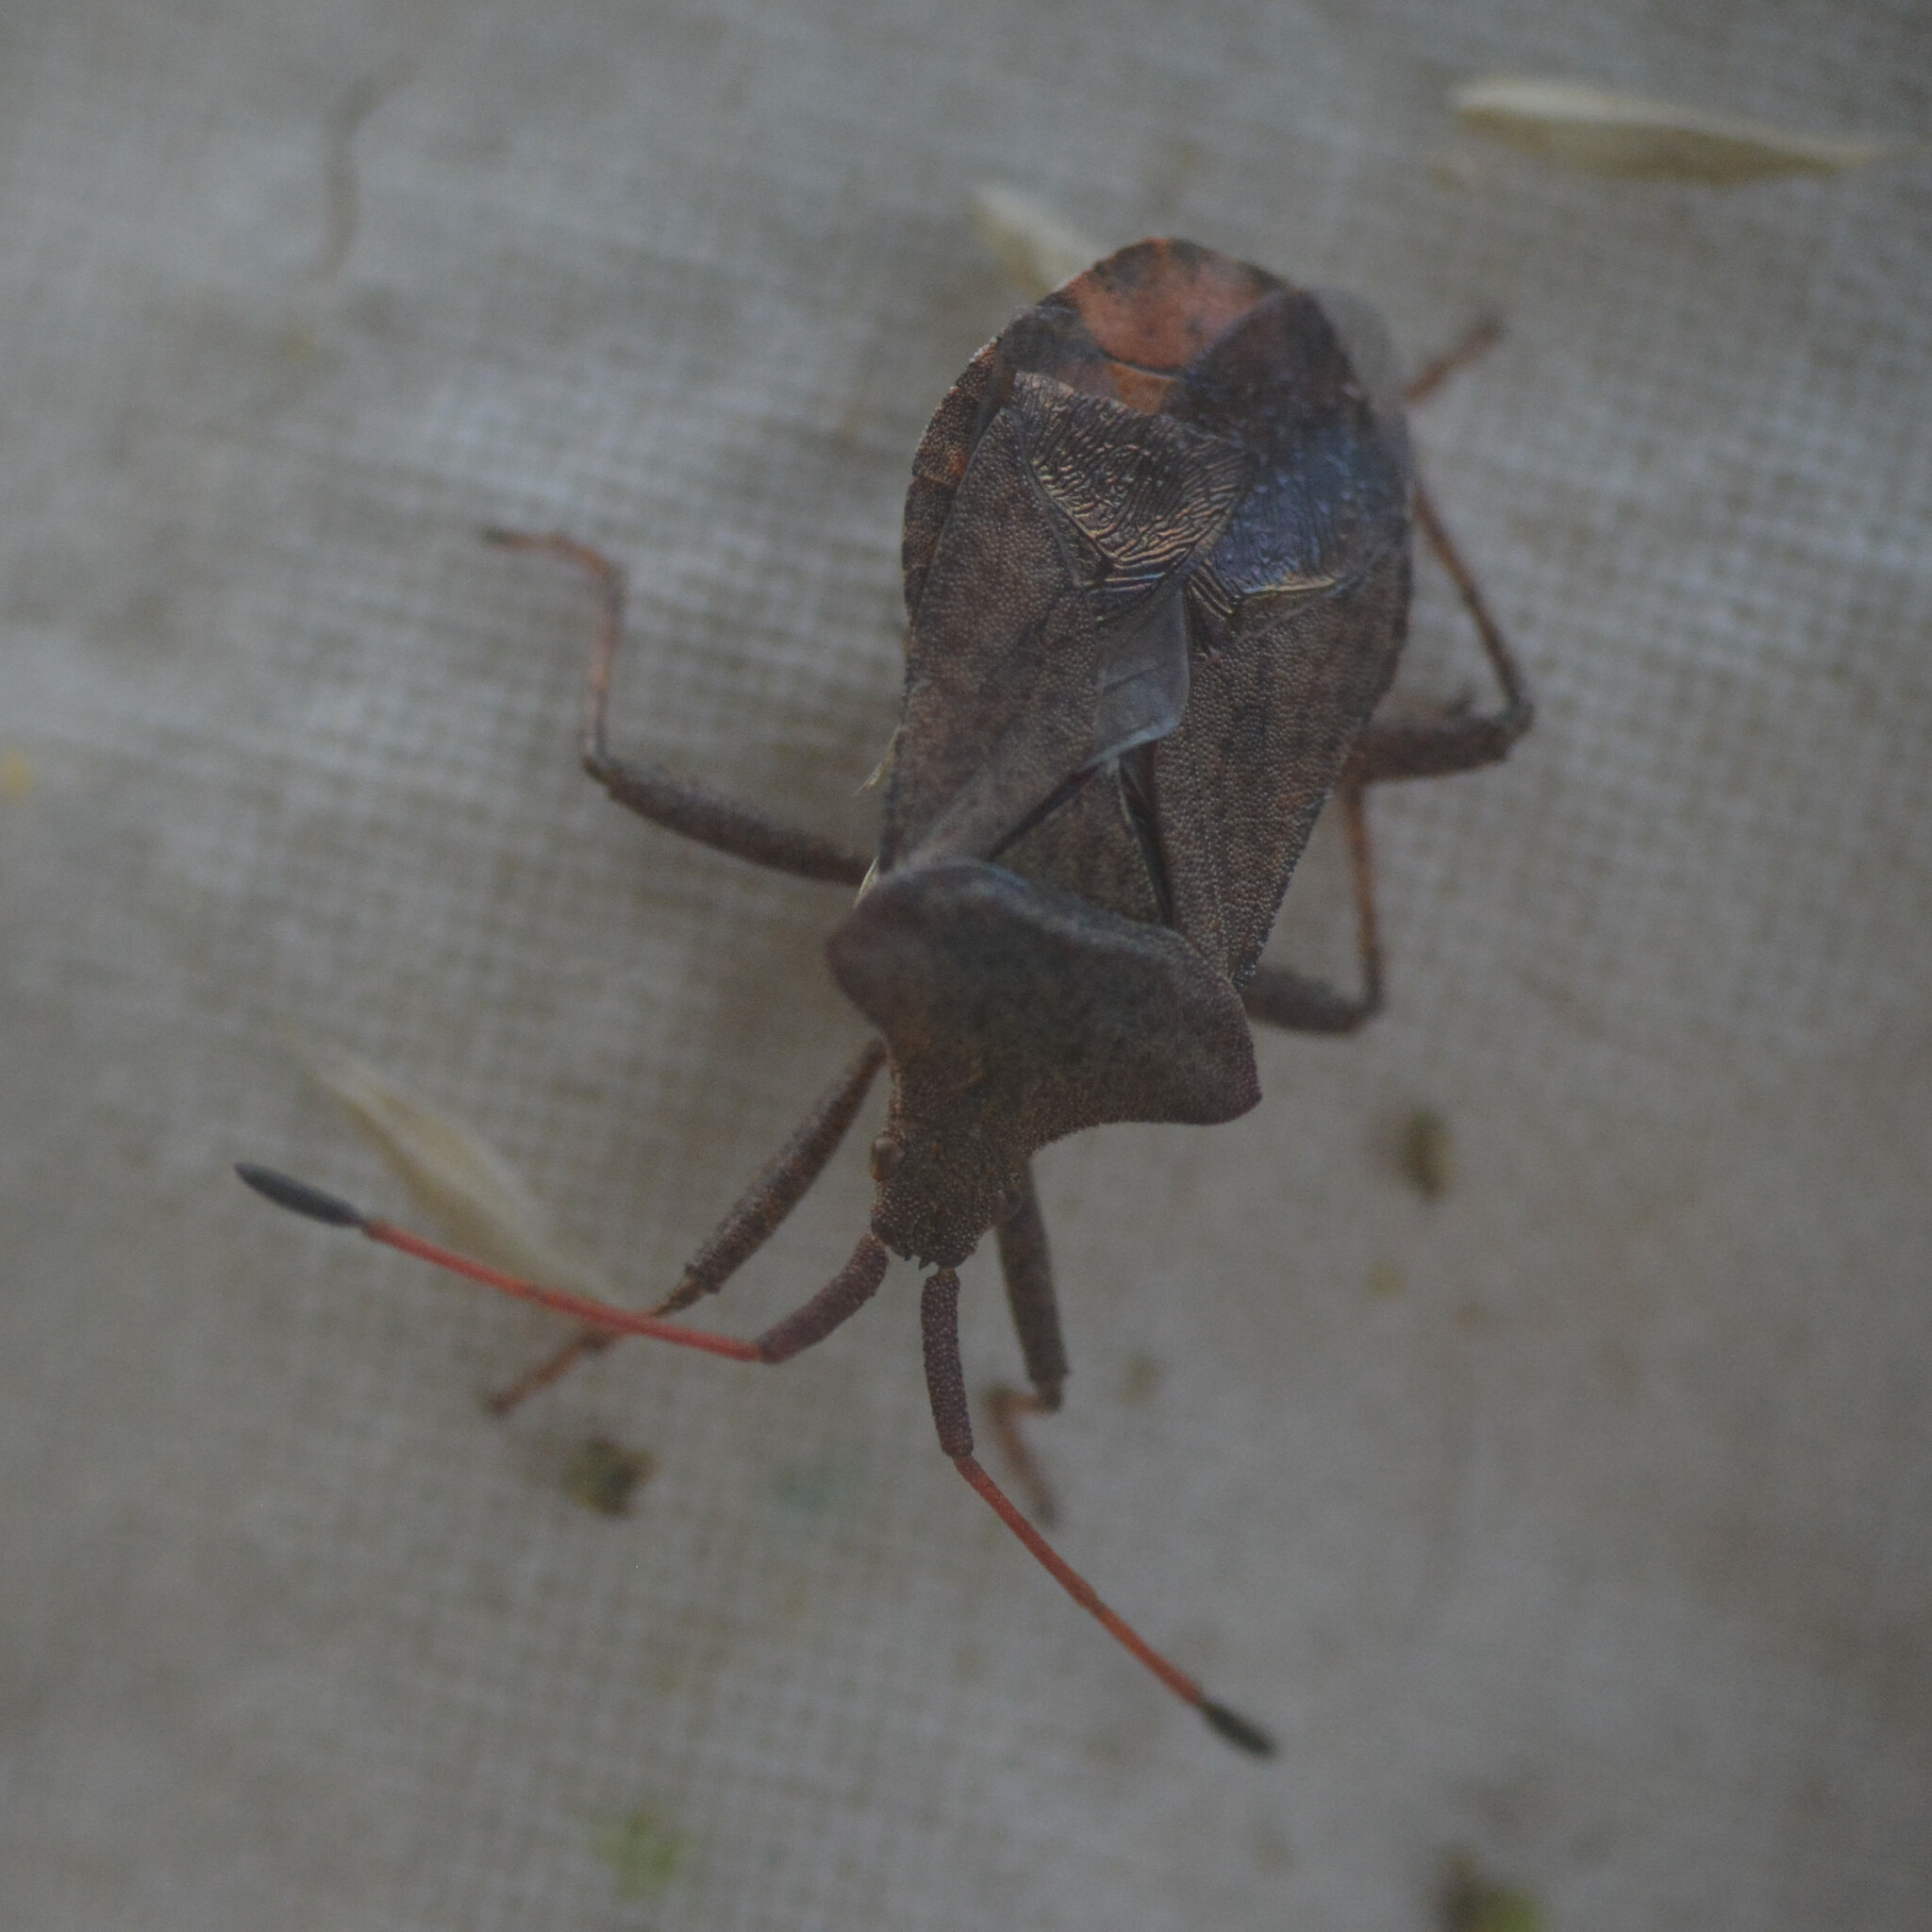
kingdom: Animalia
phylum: Arthropoda
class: Insecta
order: Hemiptera
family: Coreidae
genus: Coreus
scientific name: Coreus marginatus
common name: Dock bug
